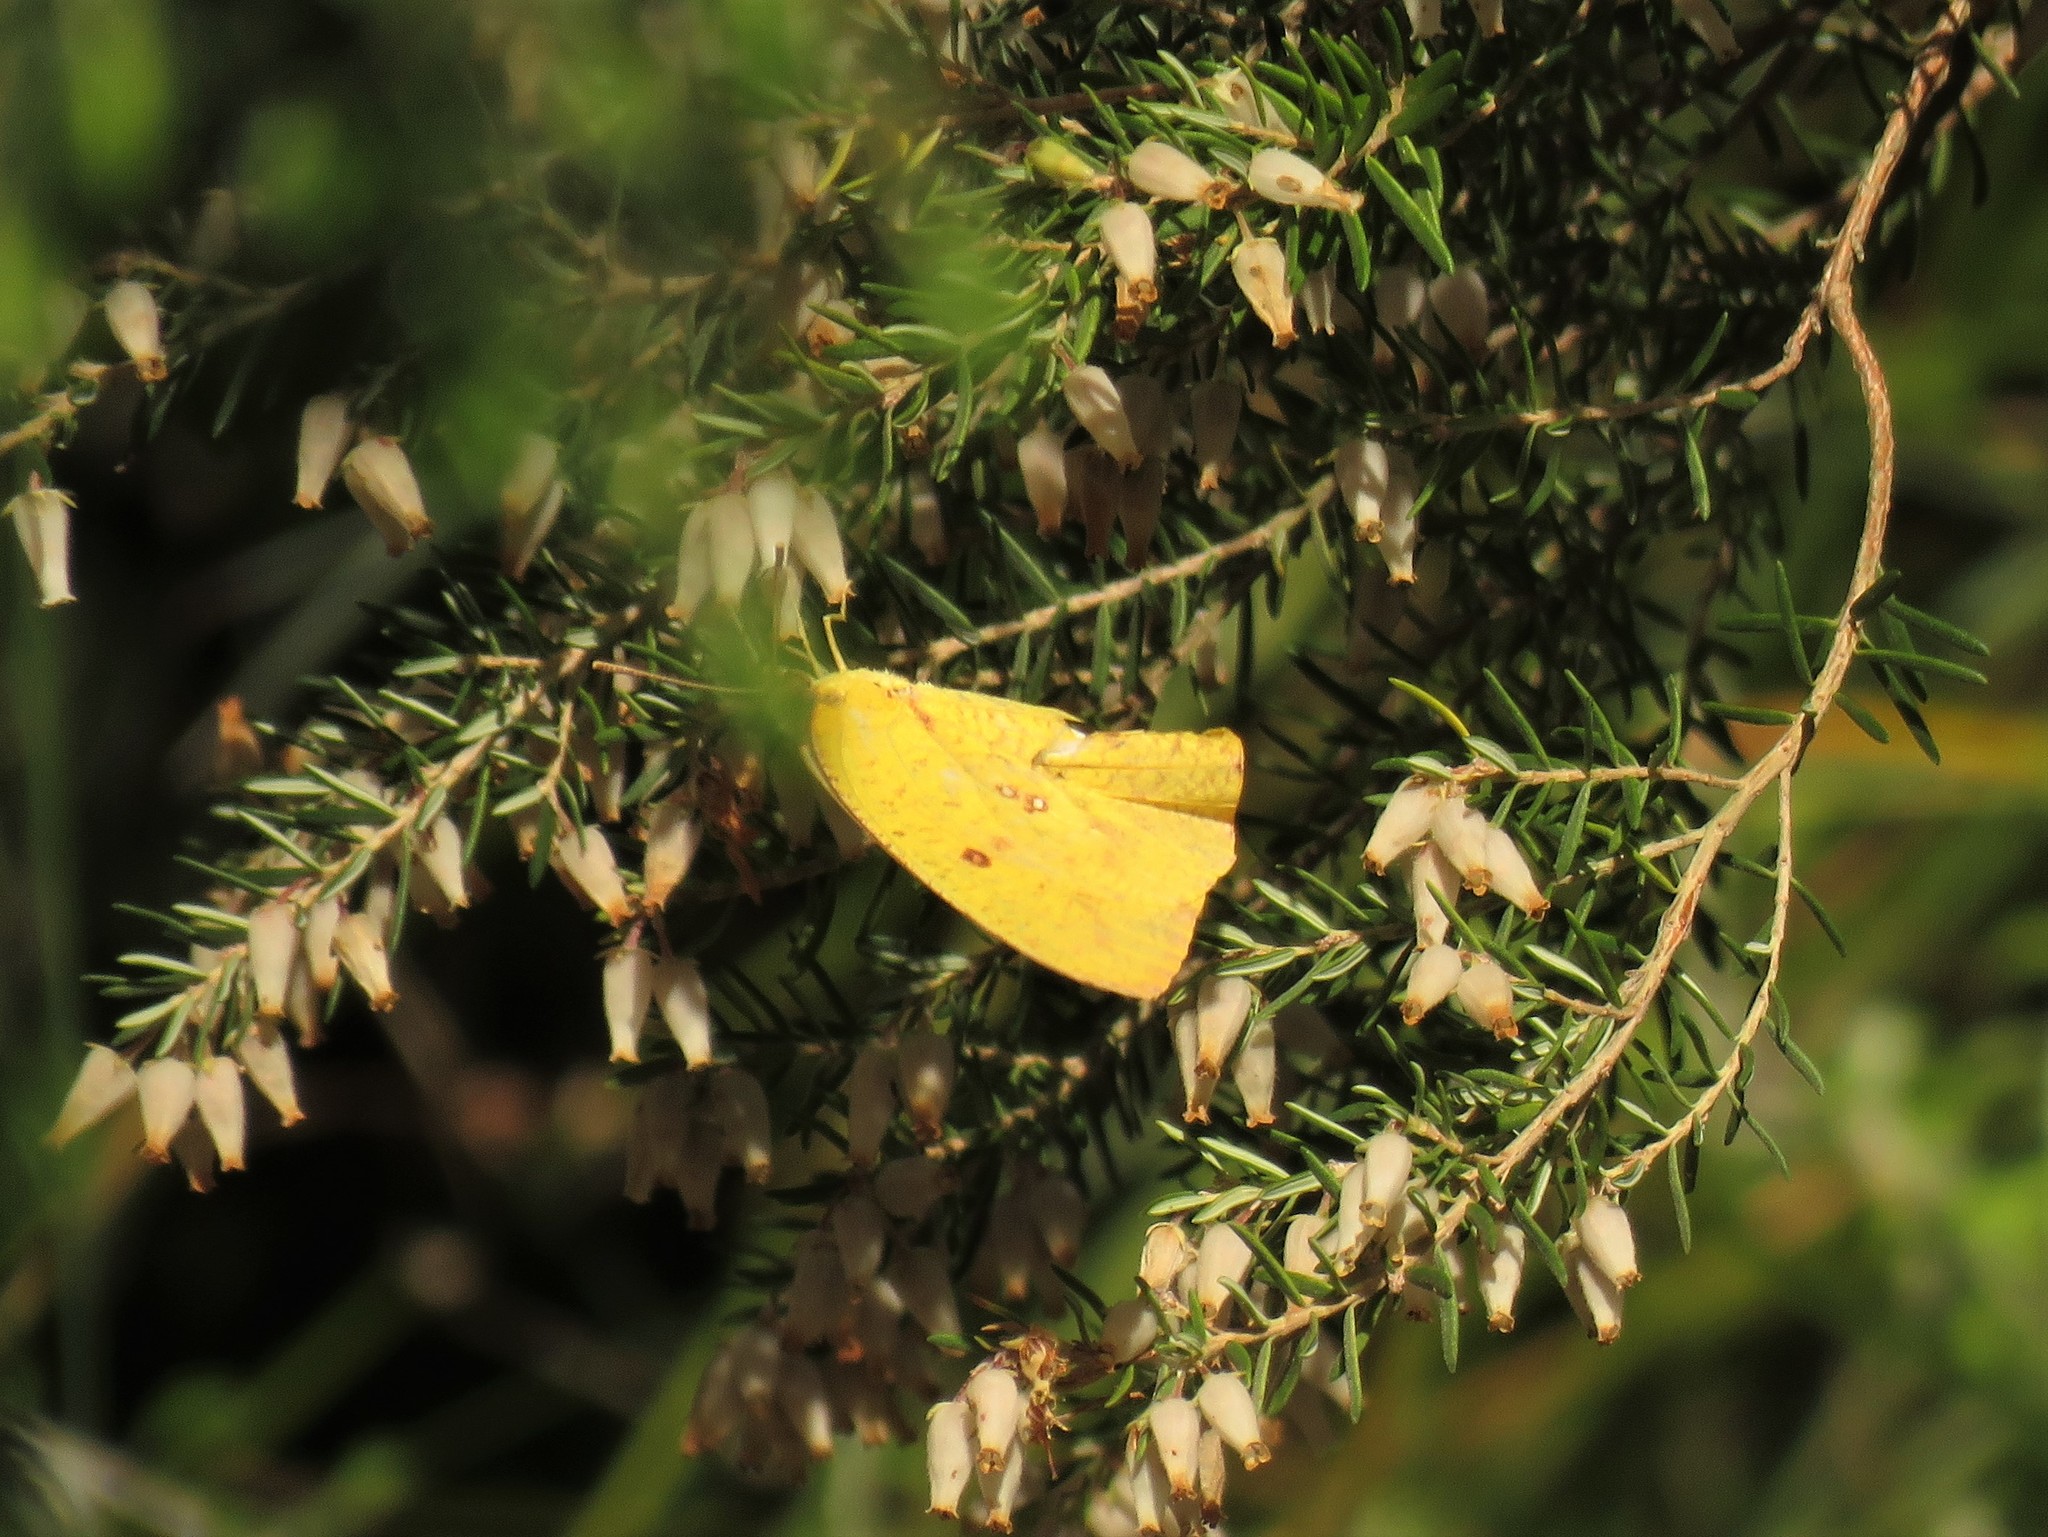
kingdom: Animalia
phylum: Arthropoda
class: Insecta
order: Lepidoptera
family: Pieridae
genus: Catopsilia
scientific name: Catopsilia florella
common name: African migrant
